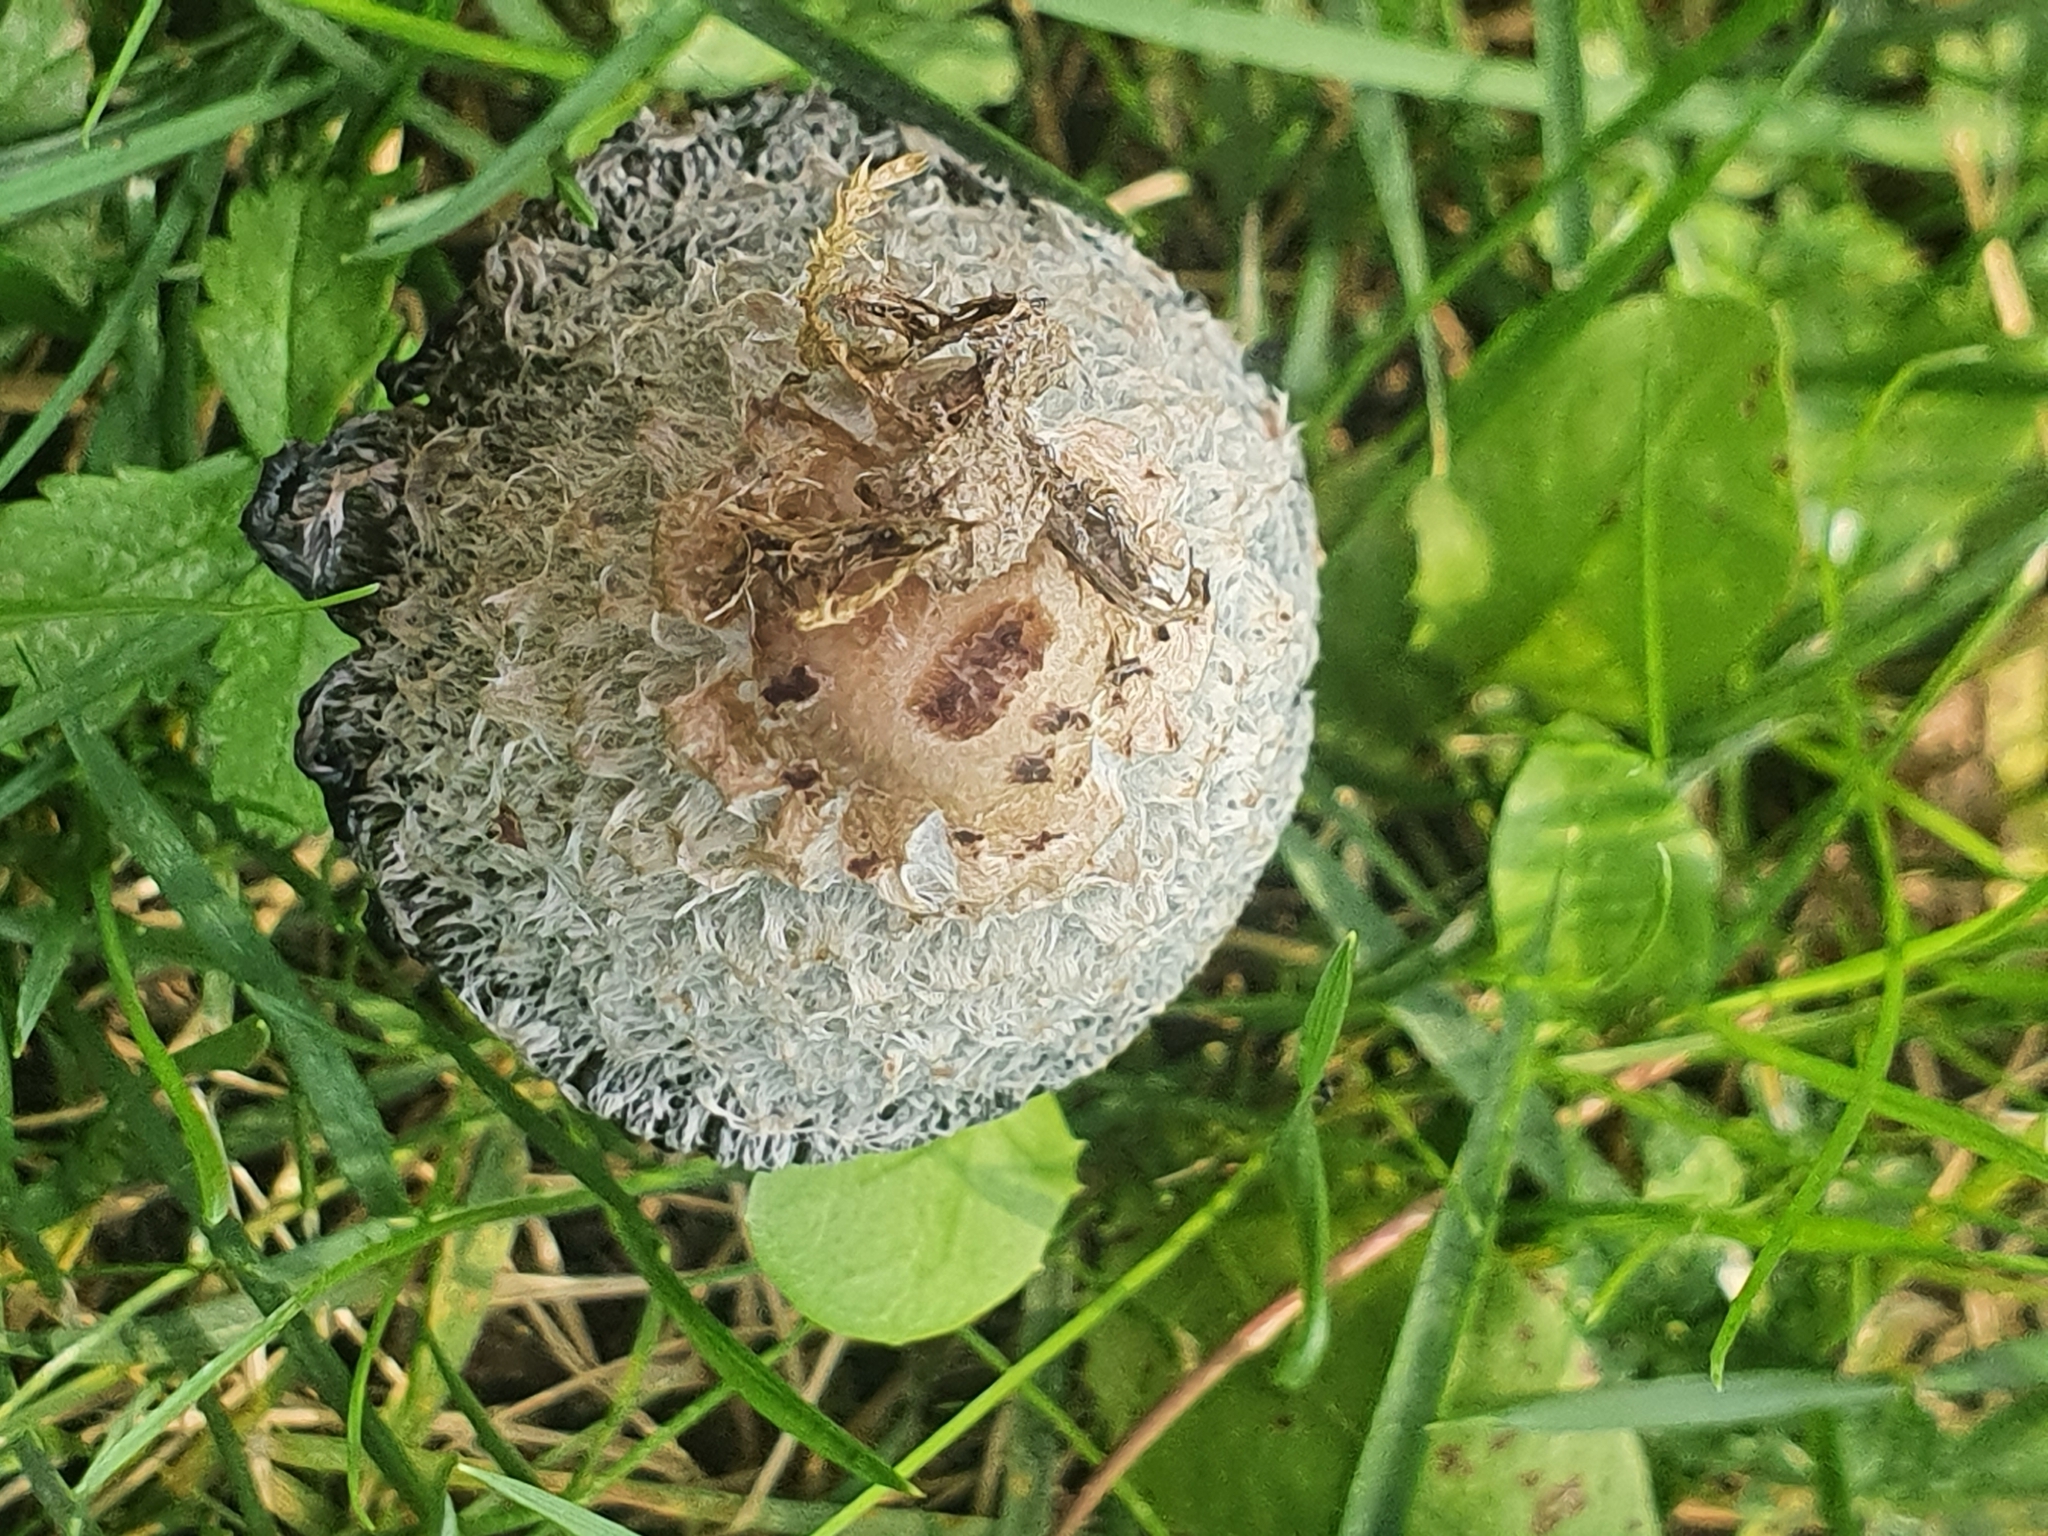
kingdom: Fungi
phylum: Basidiomycota
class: Agaricomycetes
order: Agaricales
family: Agaricaceae
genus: Coprinus
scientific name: Coprinus comatus
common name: Lawyer's wig
